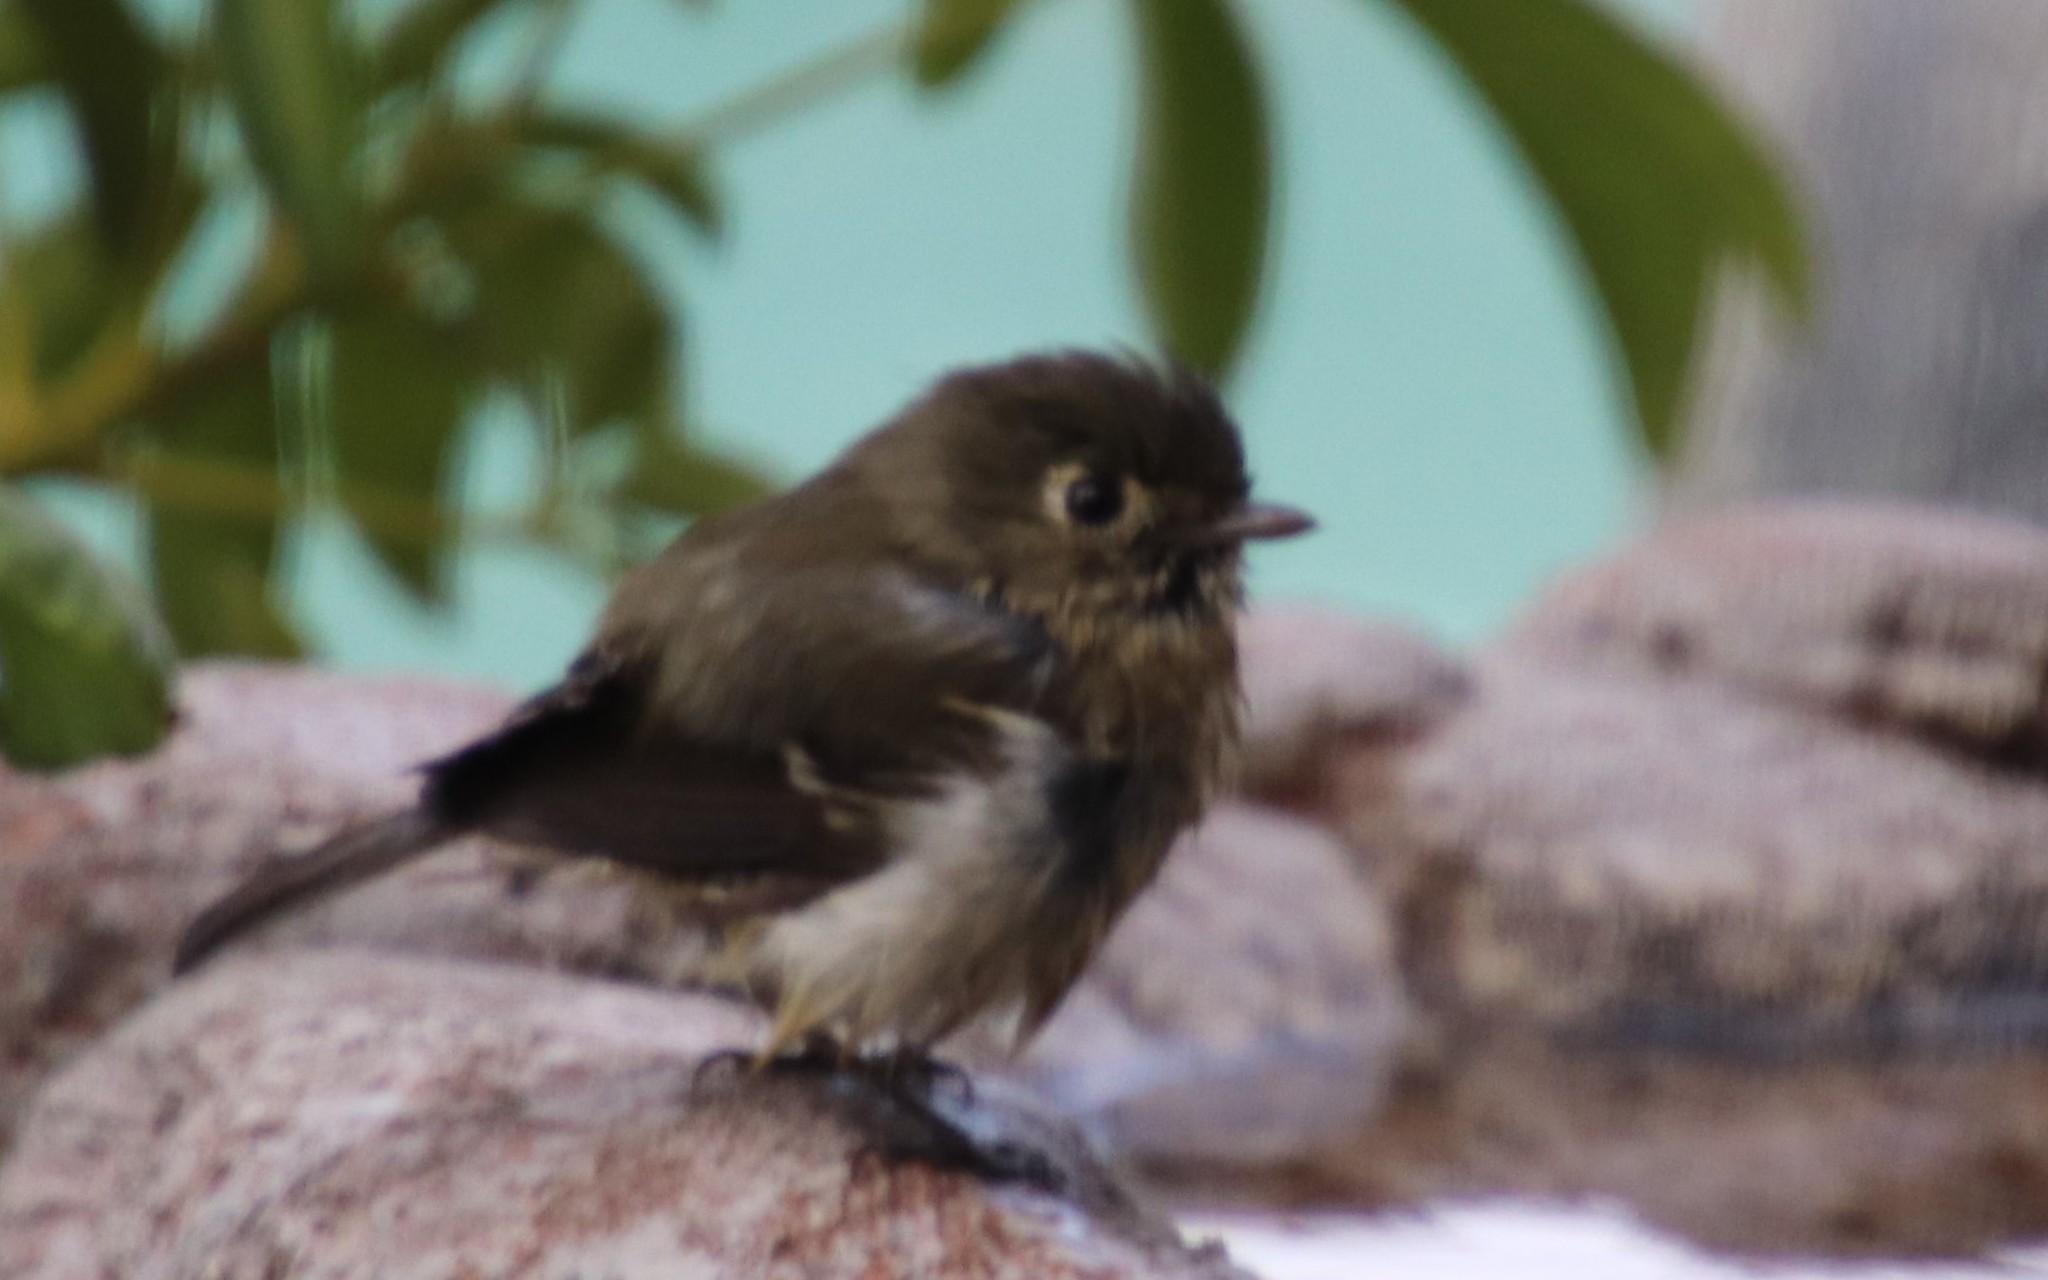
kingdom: Animalia
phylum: Chordata
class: Aves
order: Passeriformes
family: Vireonidae
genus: Vireo
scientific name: Vireo huttoni
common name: Hutton's vireo
